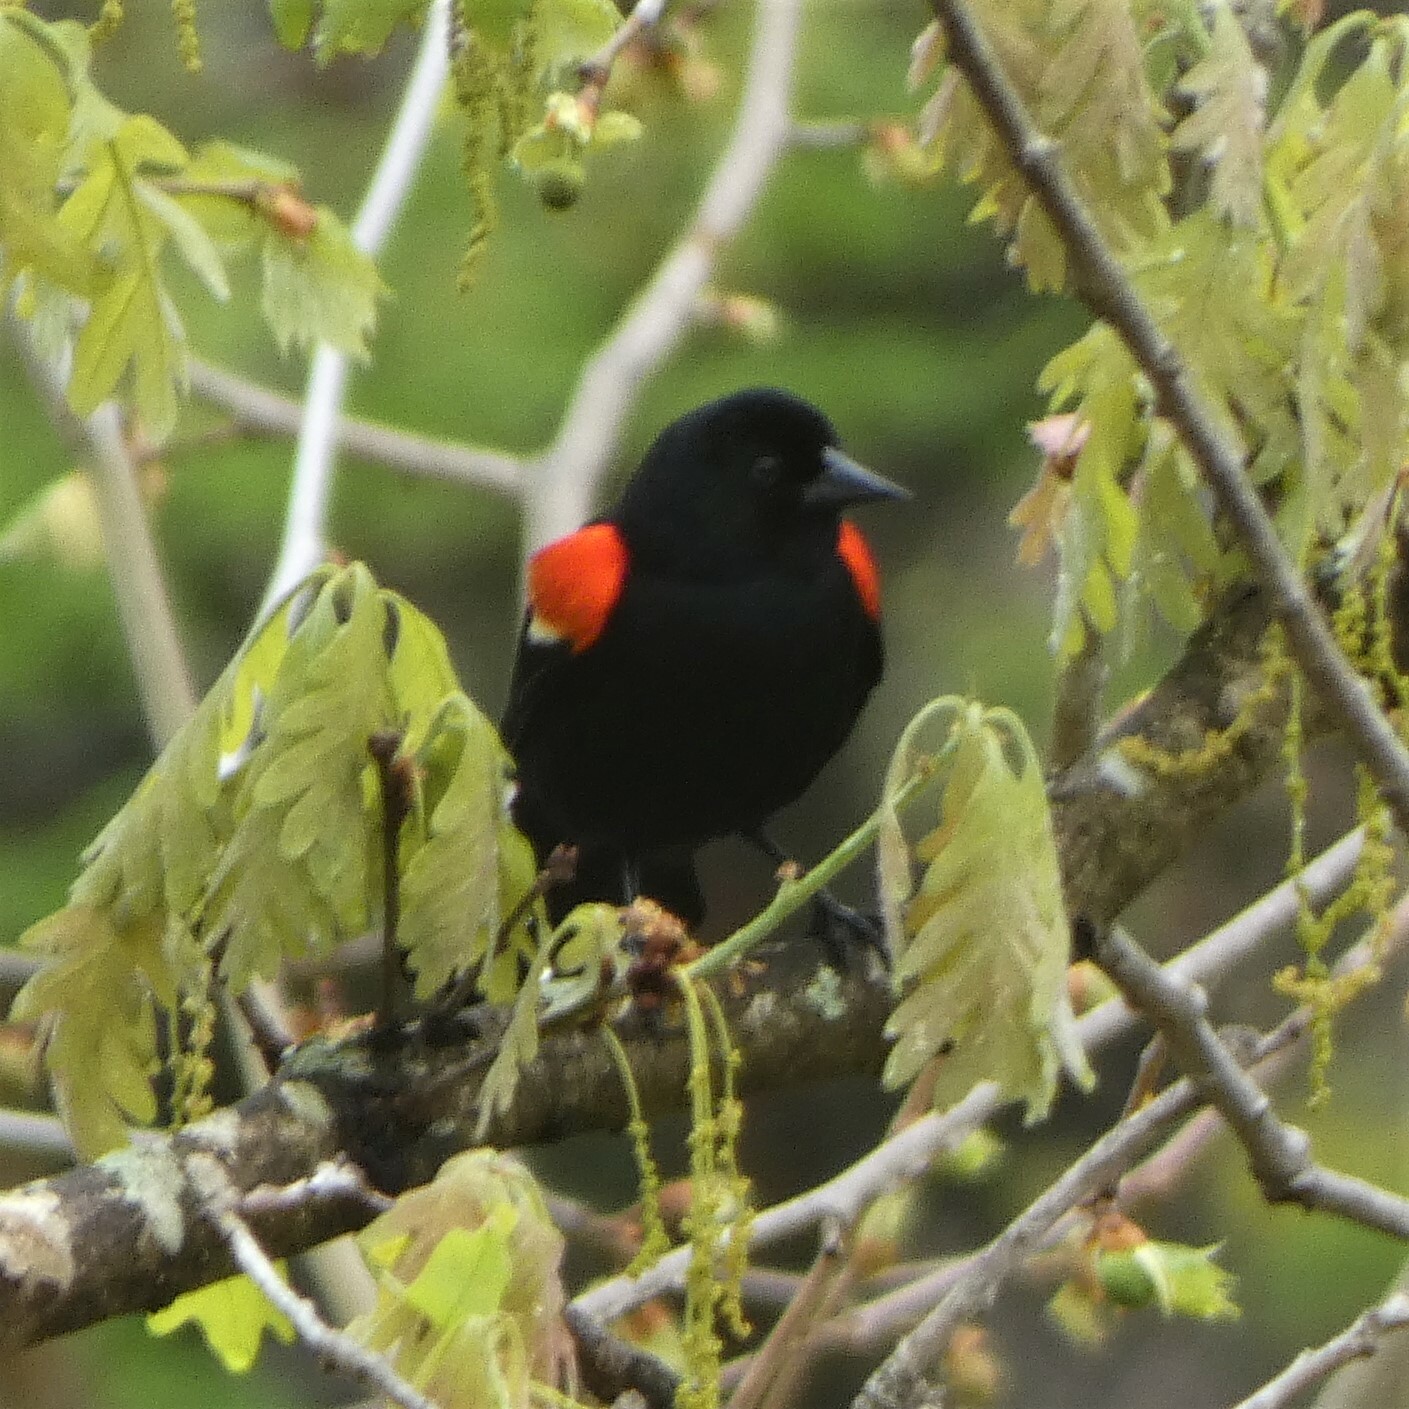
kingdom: Animalia
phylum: Chordata
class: Aves
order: Passeriformes
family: Icteridae
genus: Agelaius
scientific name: Agelaius phoeniceus
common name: Red-winged blackbird
